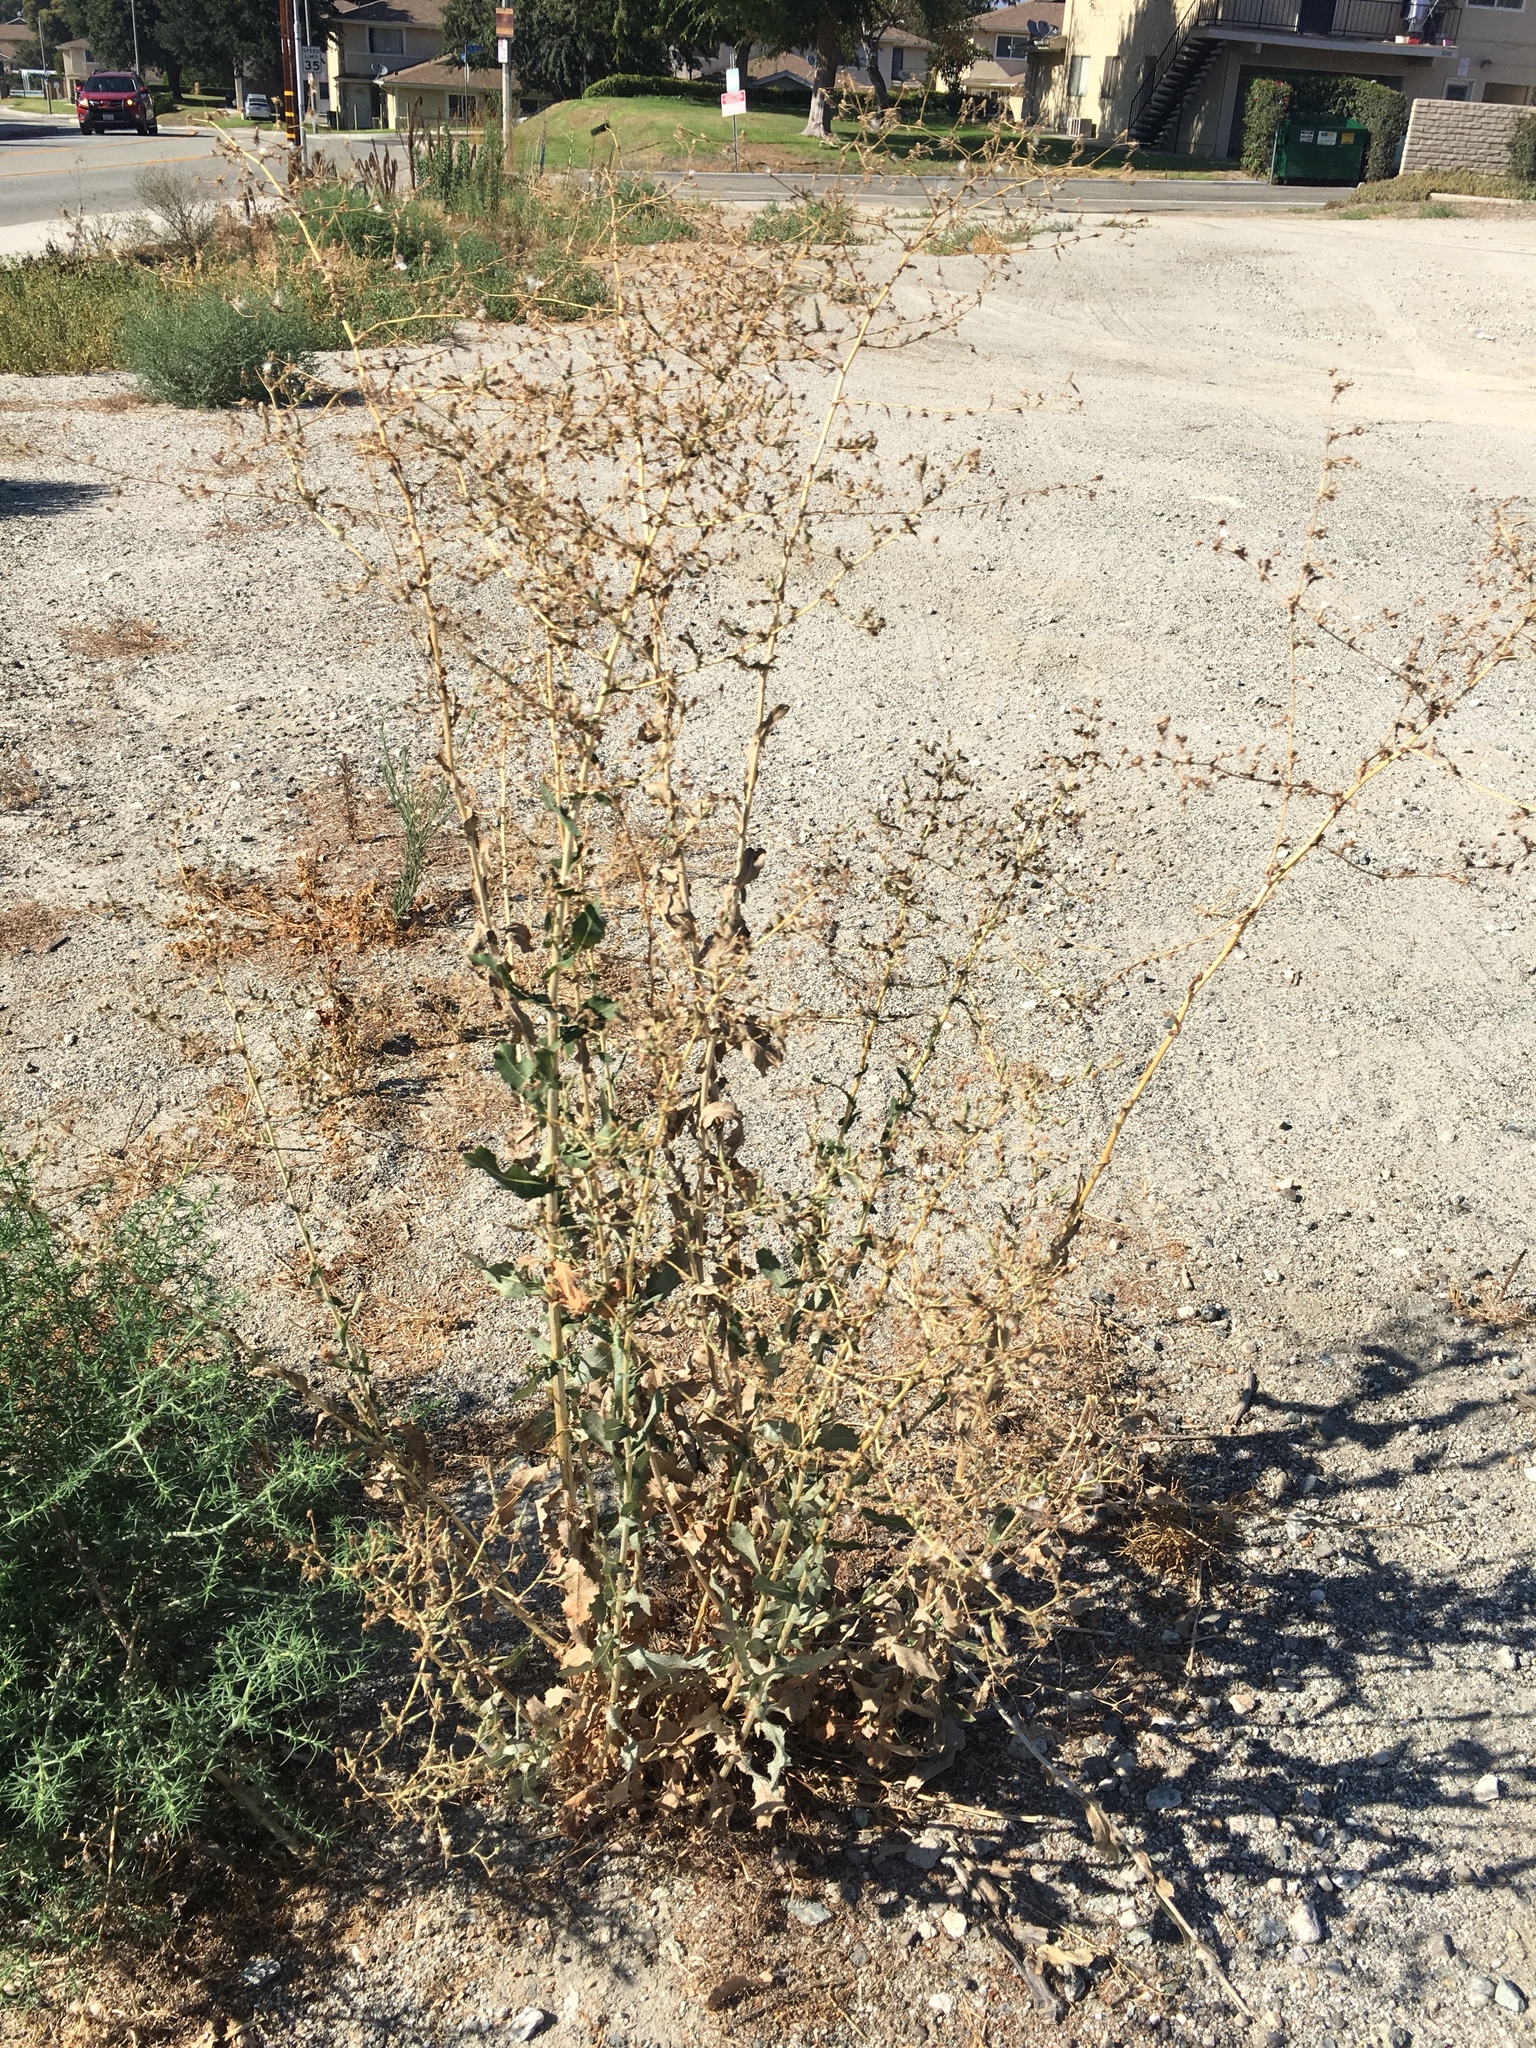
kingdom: Plantae
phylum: Tracheophyta
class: Magnoliopsida
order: Asterales
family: Asteraceae
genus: Lactuca
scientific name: Lactuca serriola
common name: Prickly lettuce
